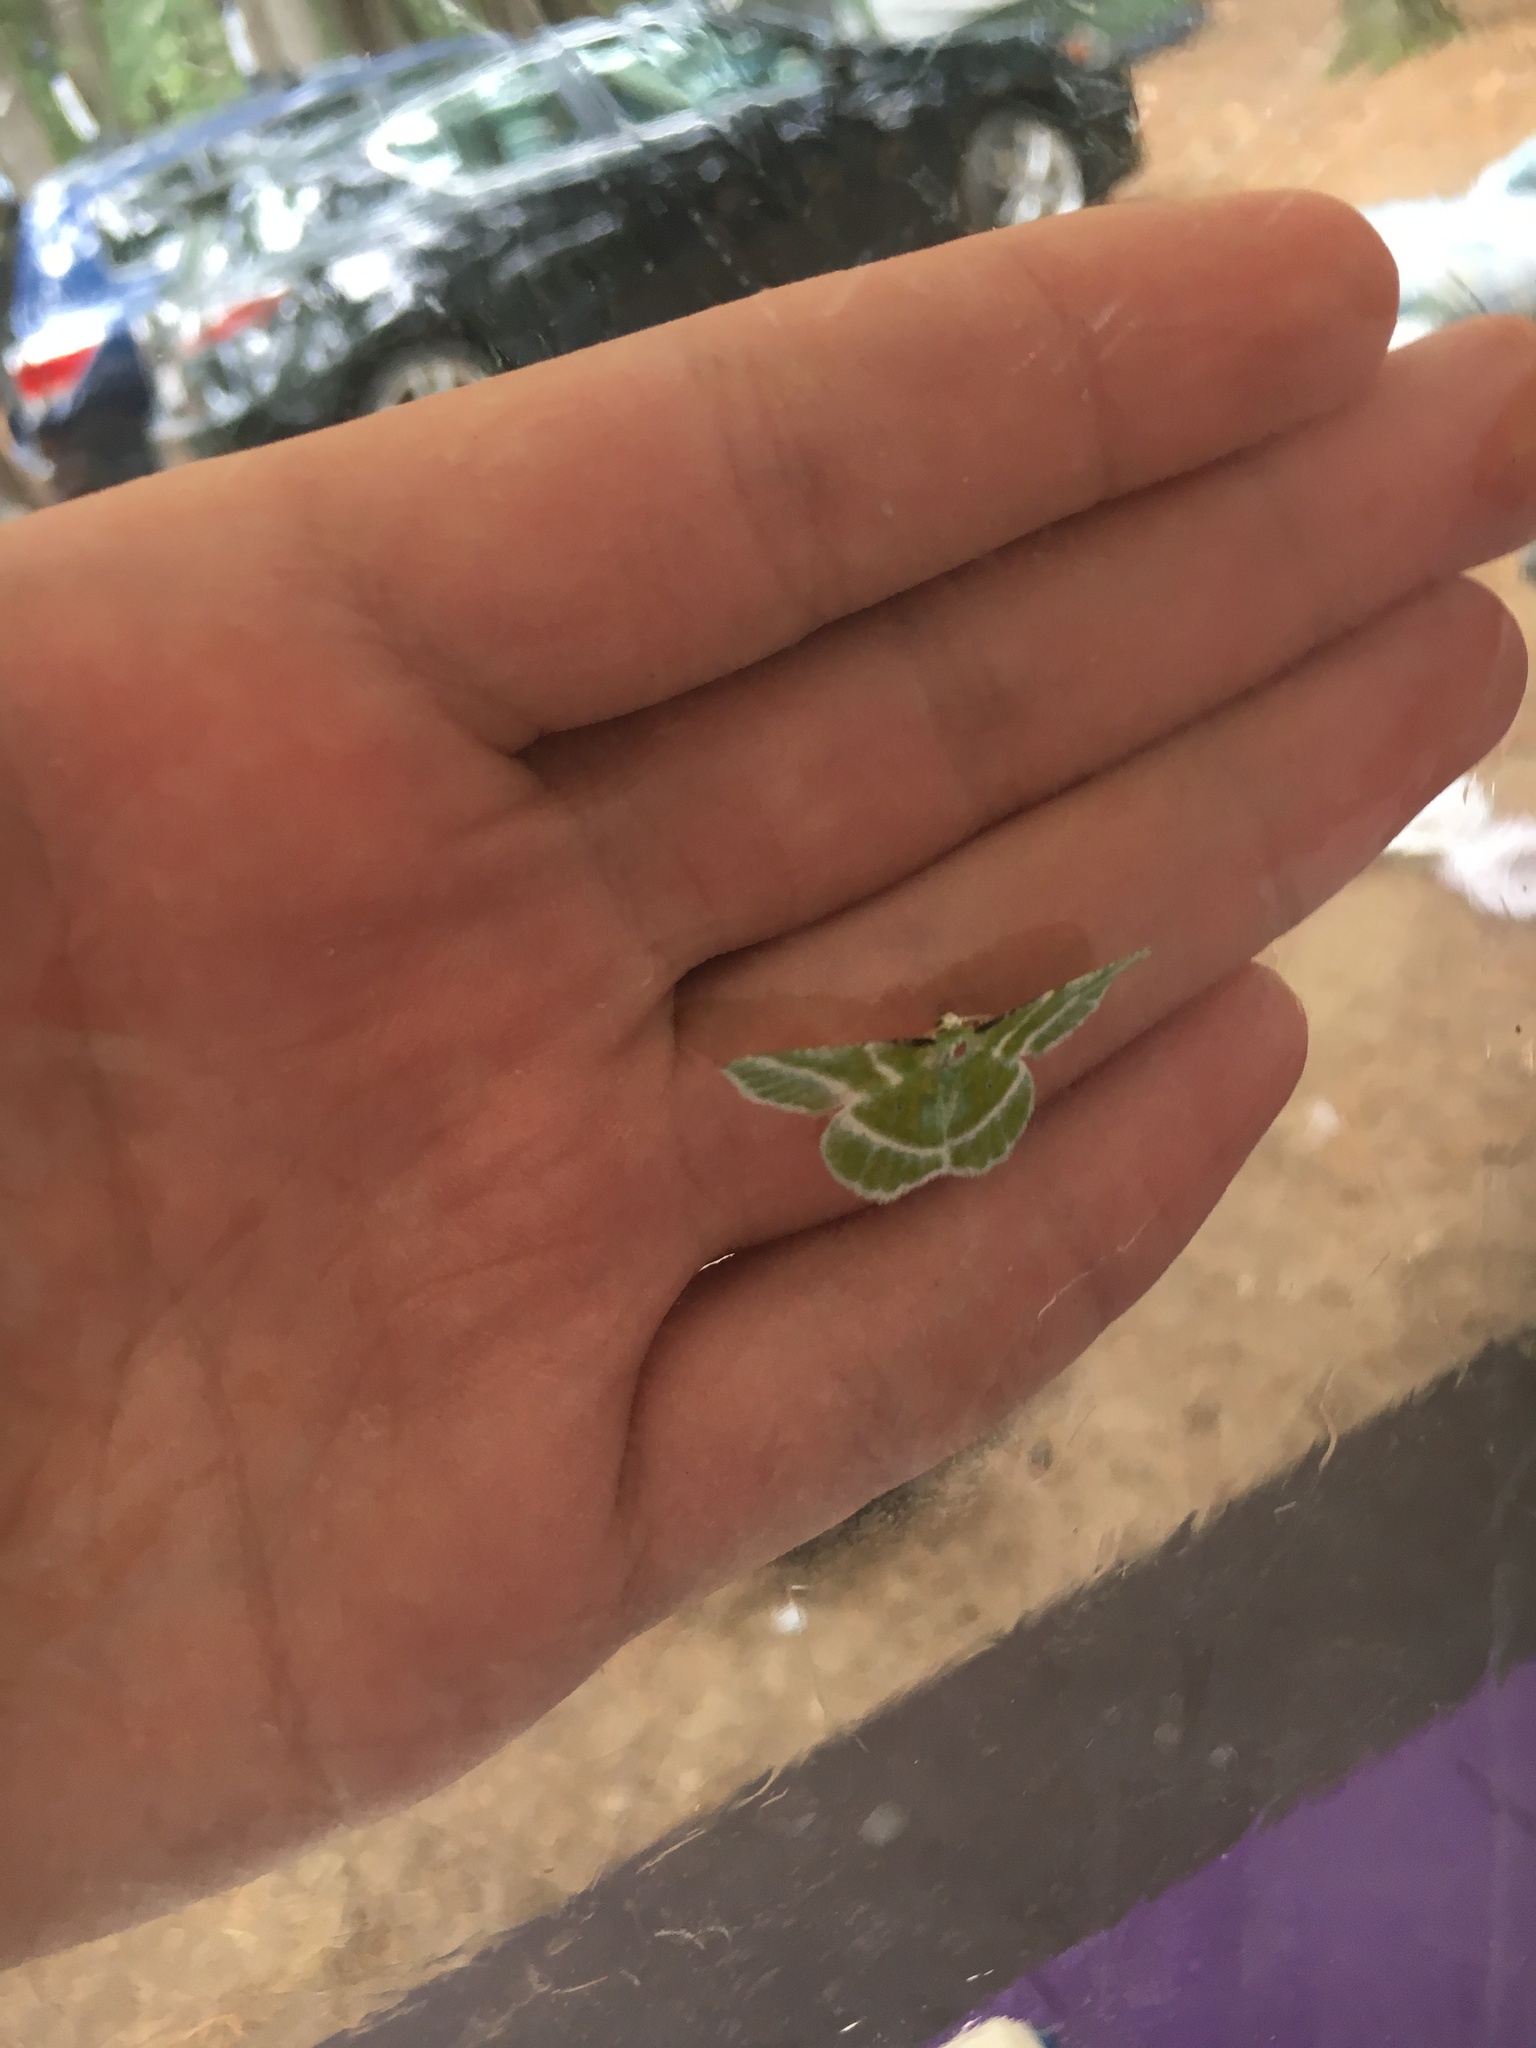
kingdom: Animalia
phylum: Arthropoda
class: Insecta
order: Lepidoptera
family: Geometridae
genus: Dichorda
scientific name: Dichorda iridaria
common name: Showy emerald
